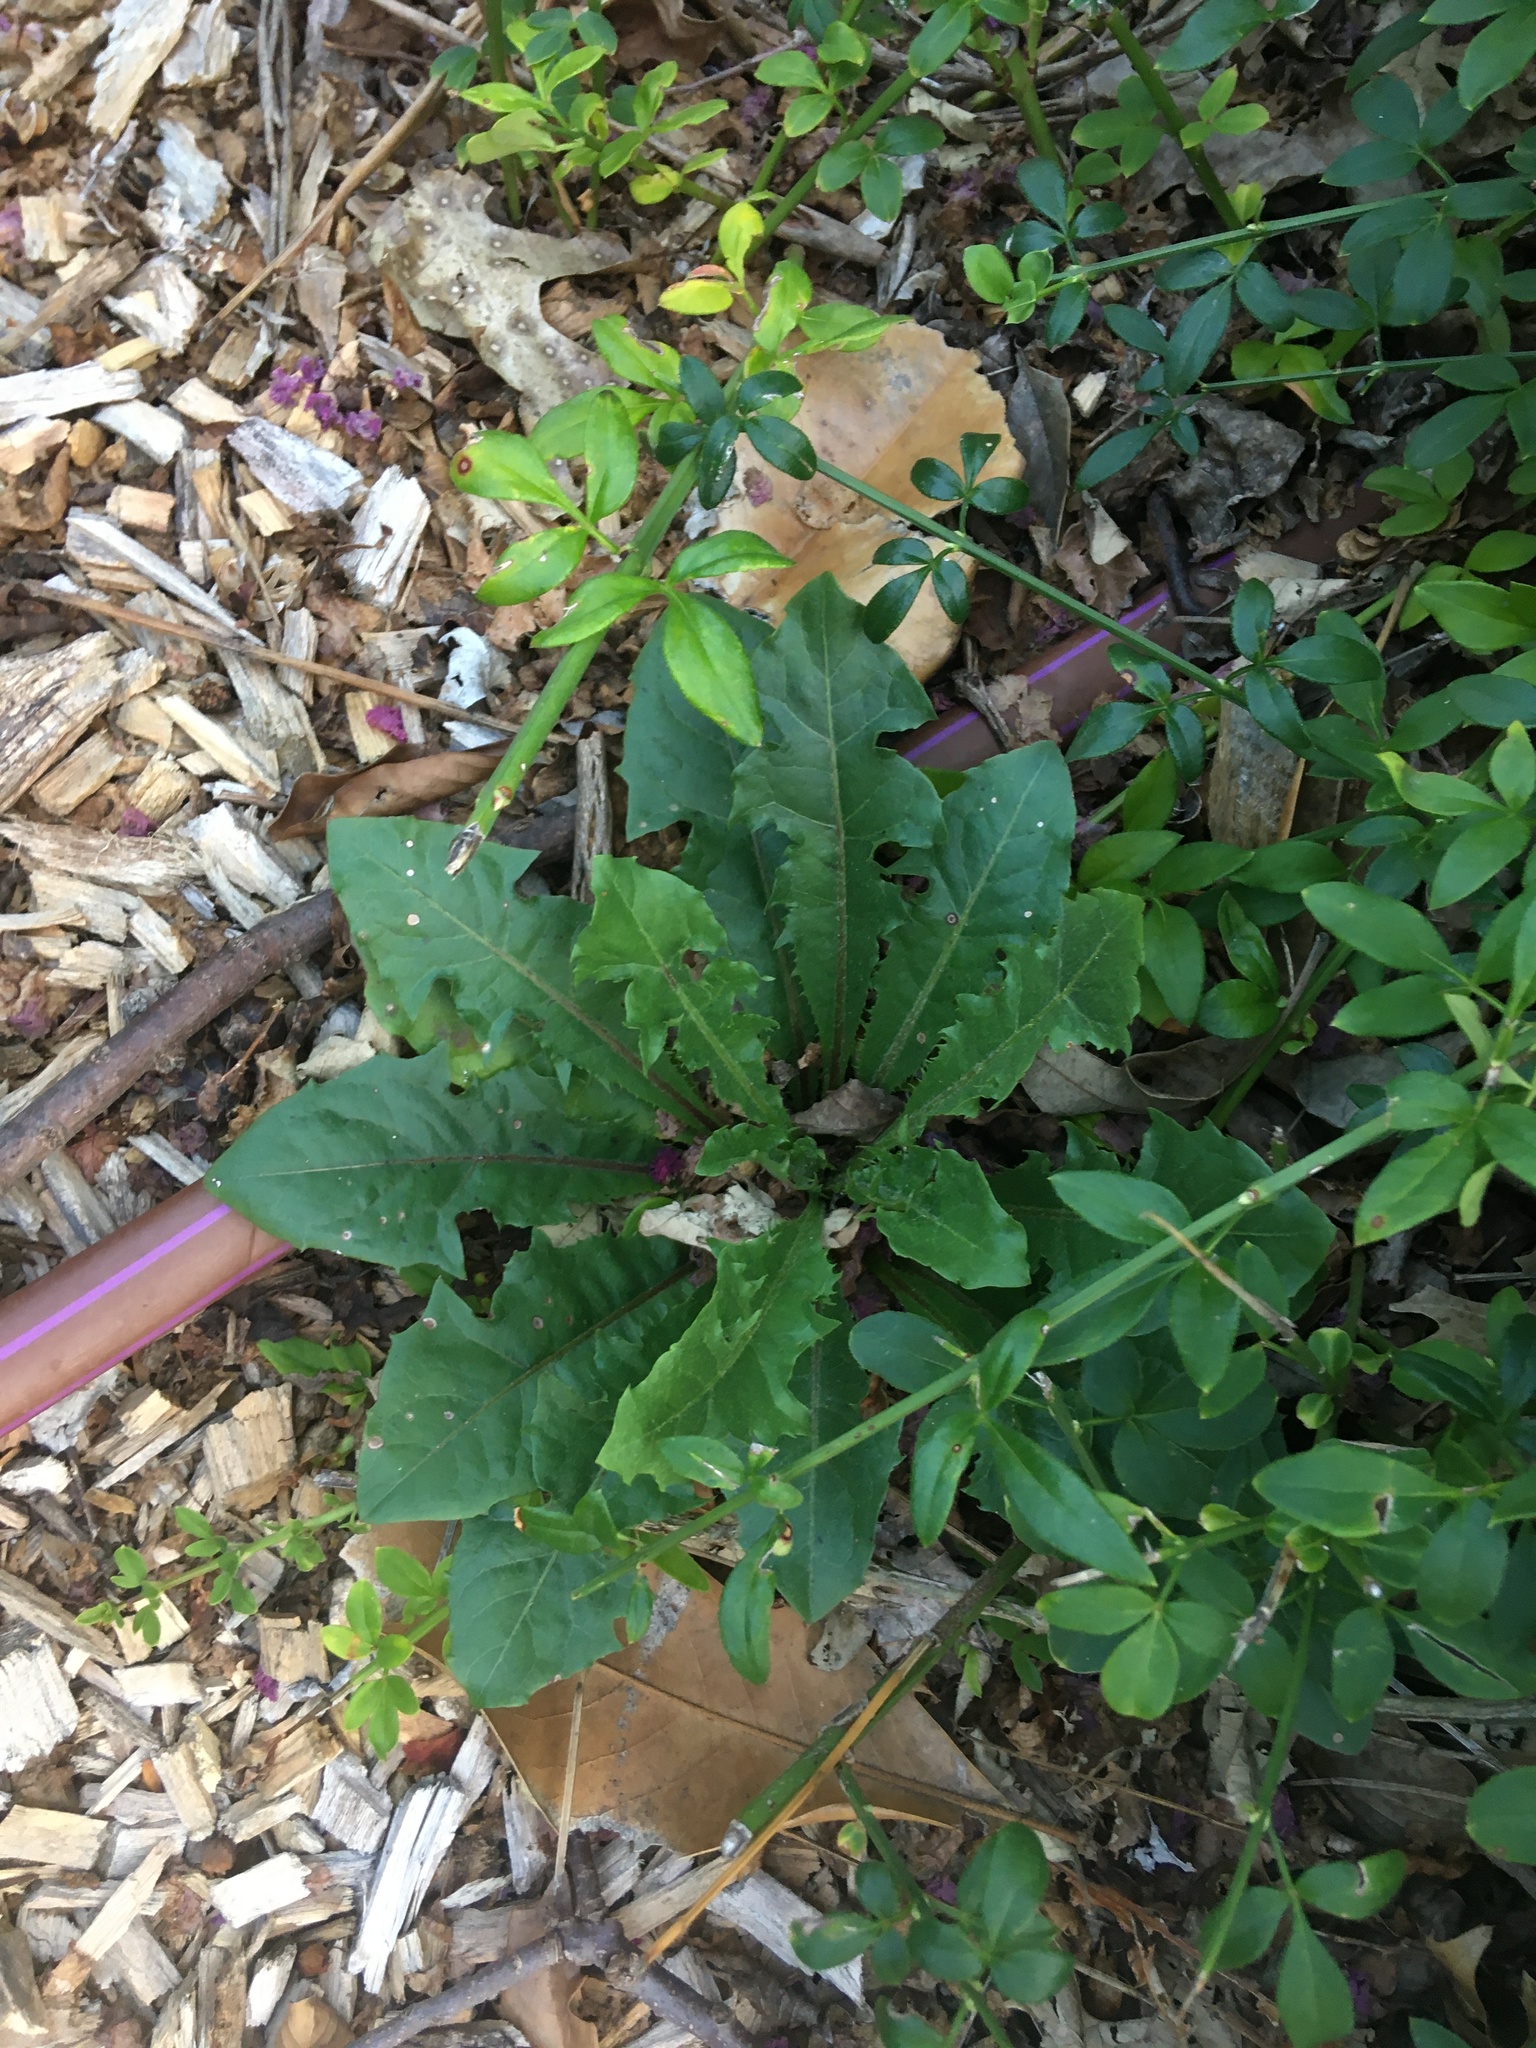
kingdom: Plantae
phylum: Tracheophyta
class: Magnoliopsida
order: Asterales
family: Asteraceae
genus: Taraxacum
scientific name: Taraxacum officinale
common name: Common dandelion
